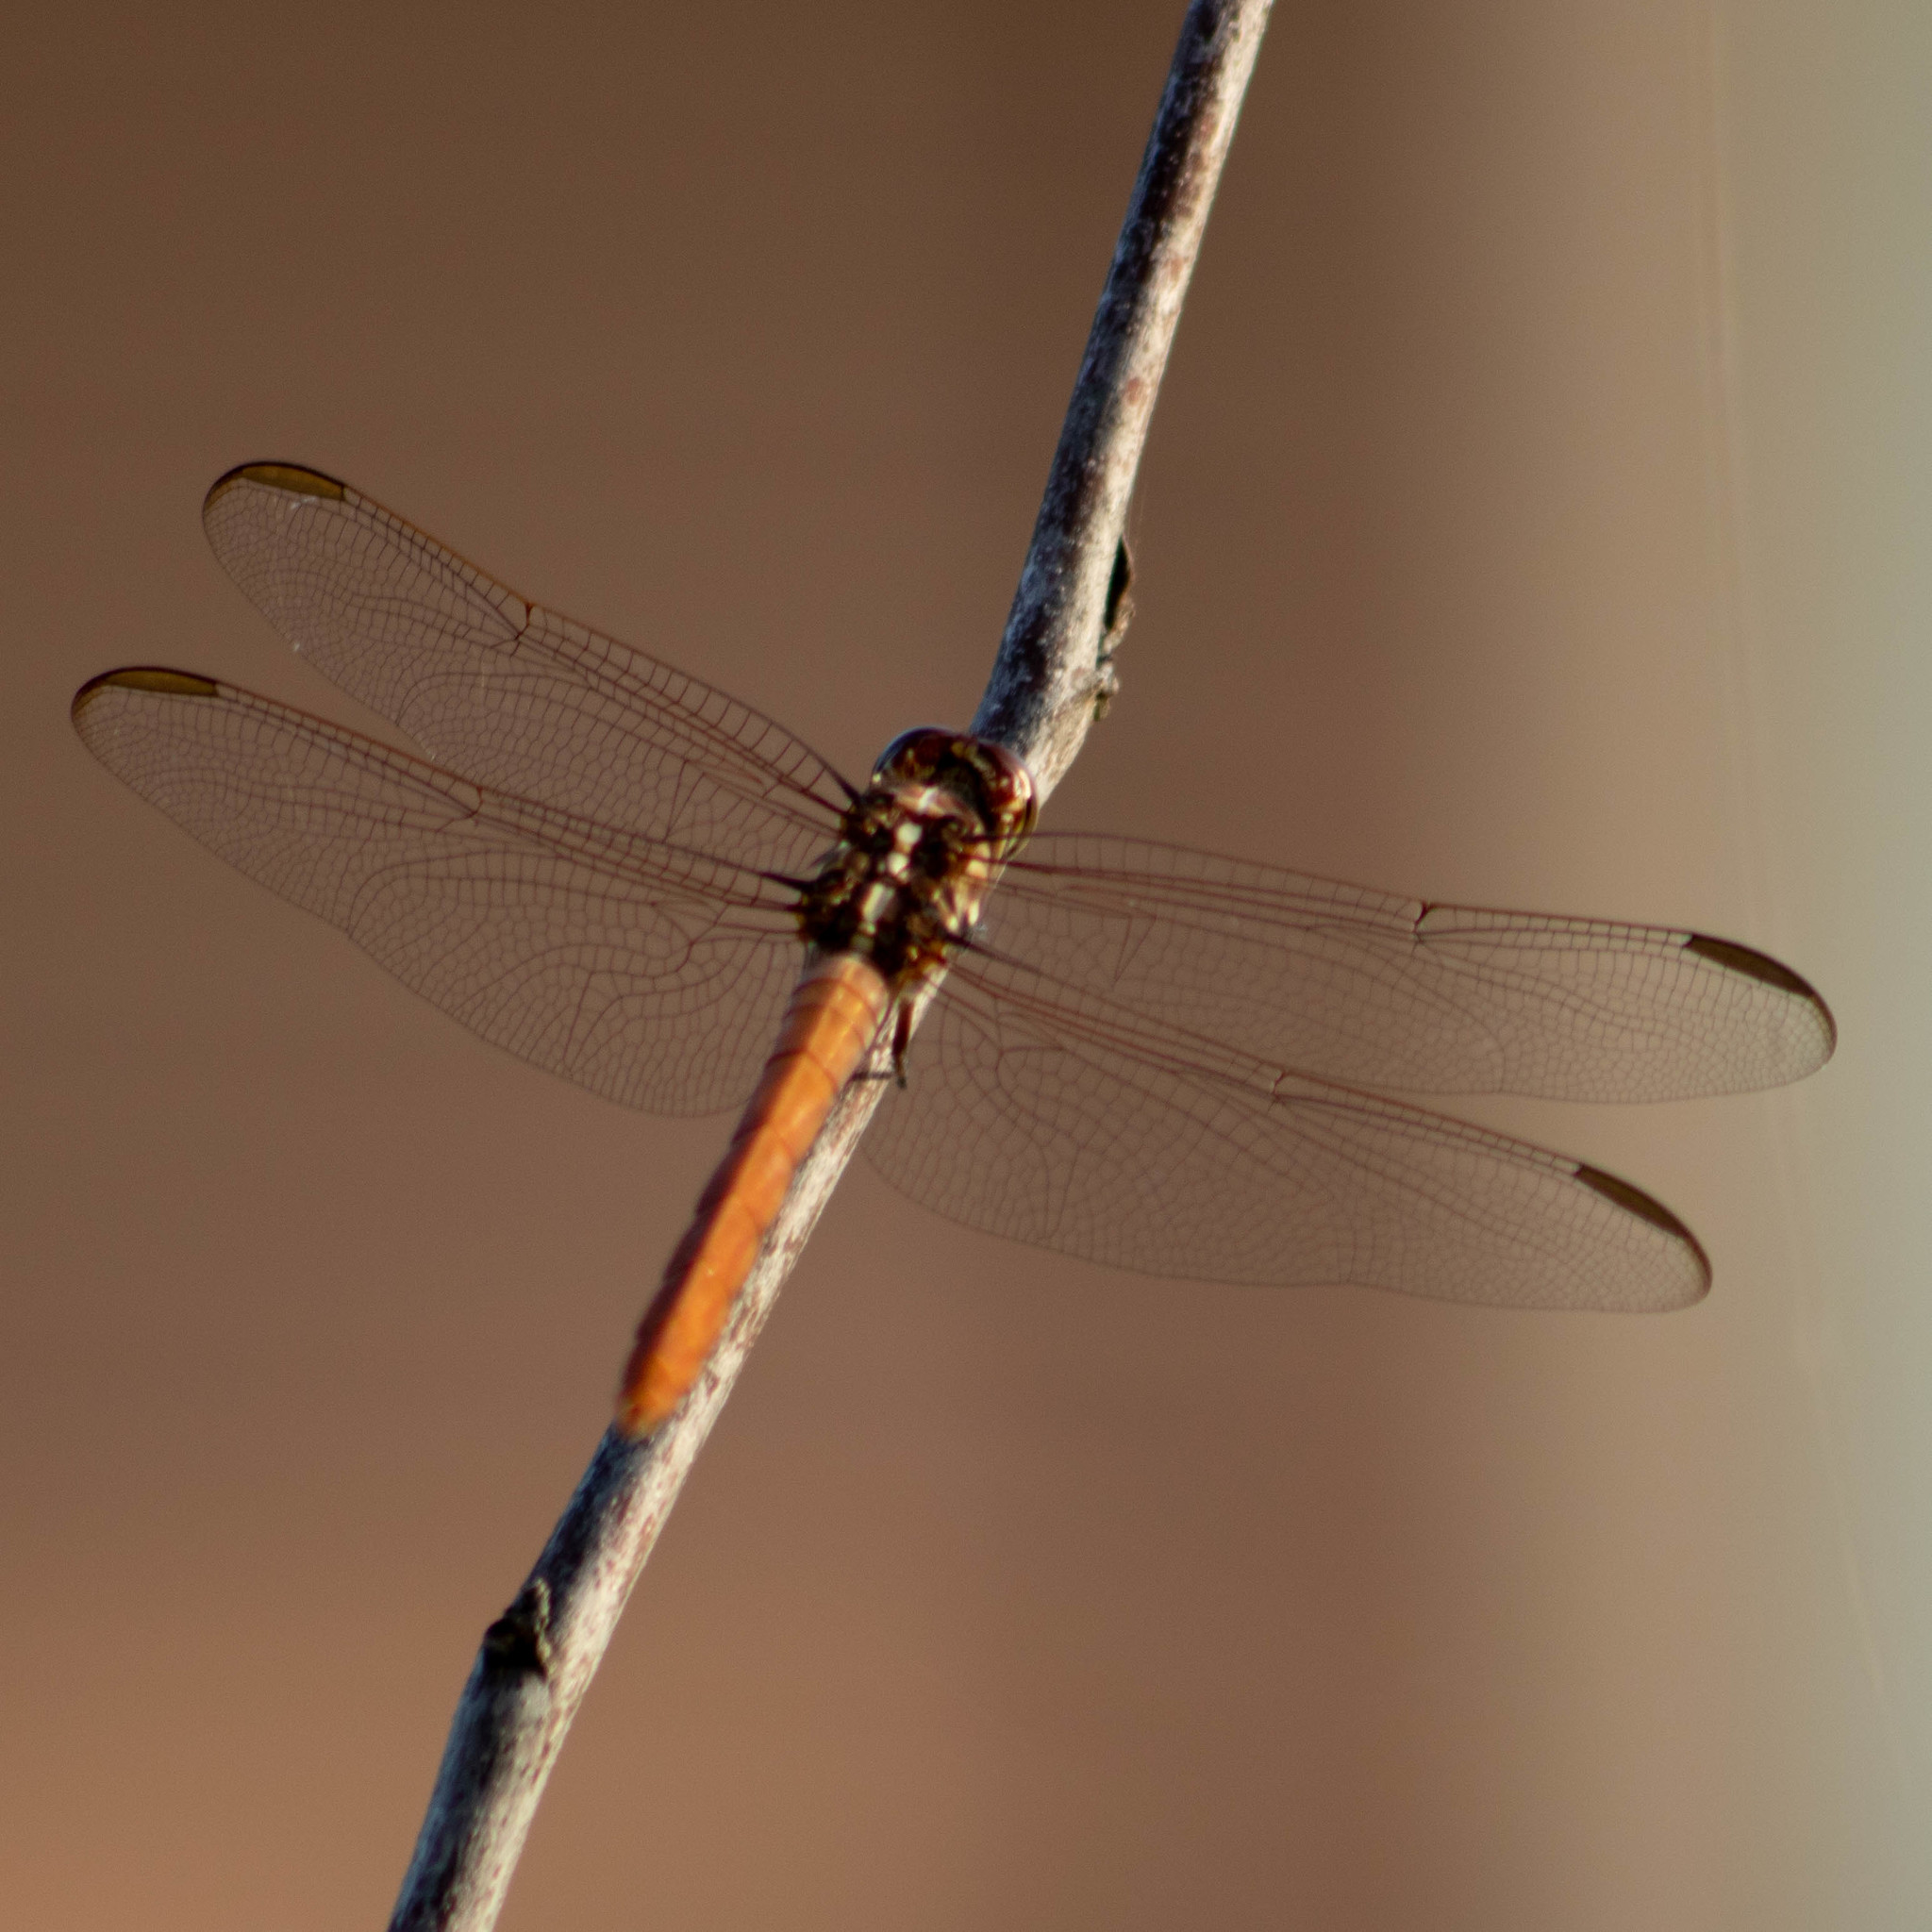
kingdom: Animalia
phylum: Arthropoda
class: Insecta
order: Odonata
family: Libellulidae
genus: Orthemis
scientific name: Orthemis ferruginea
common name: Roseate skimmer
